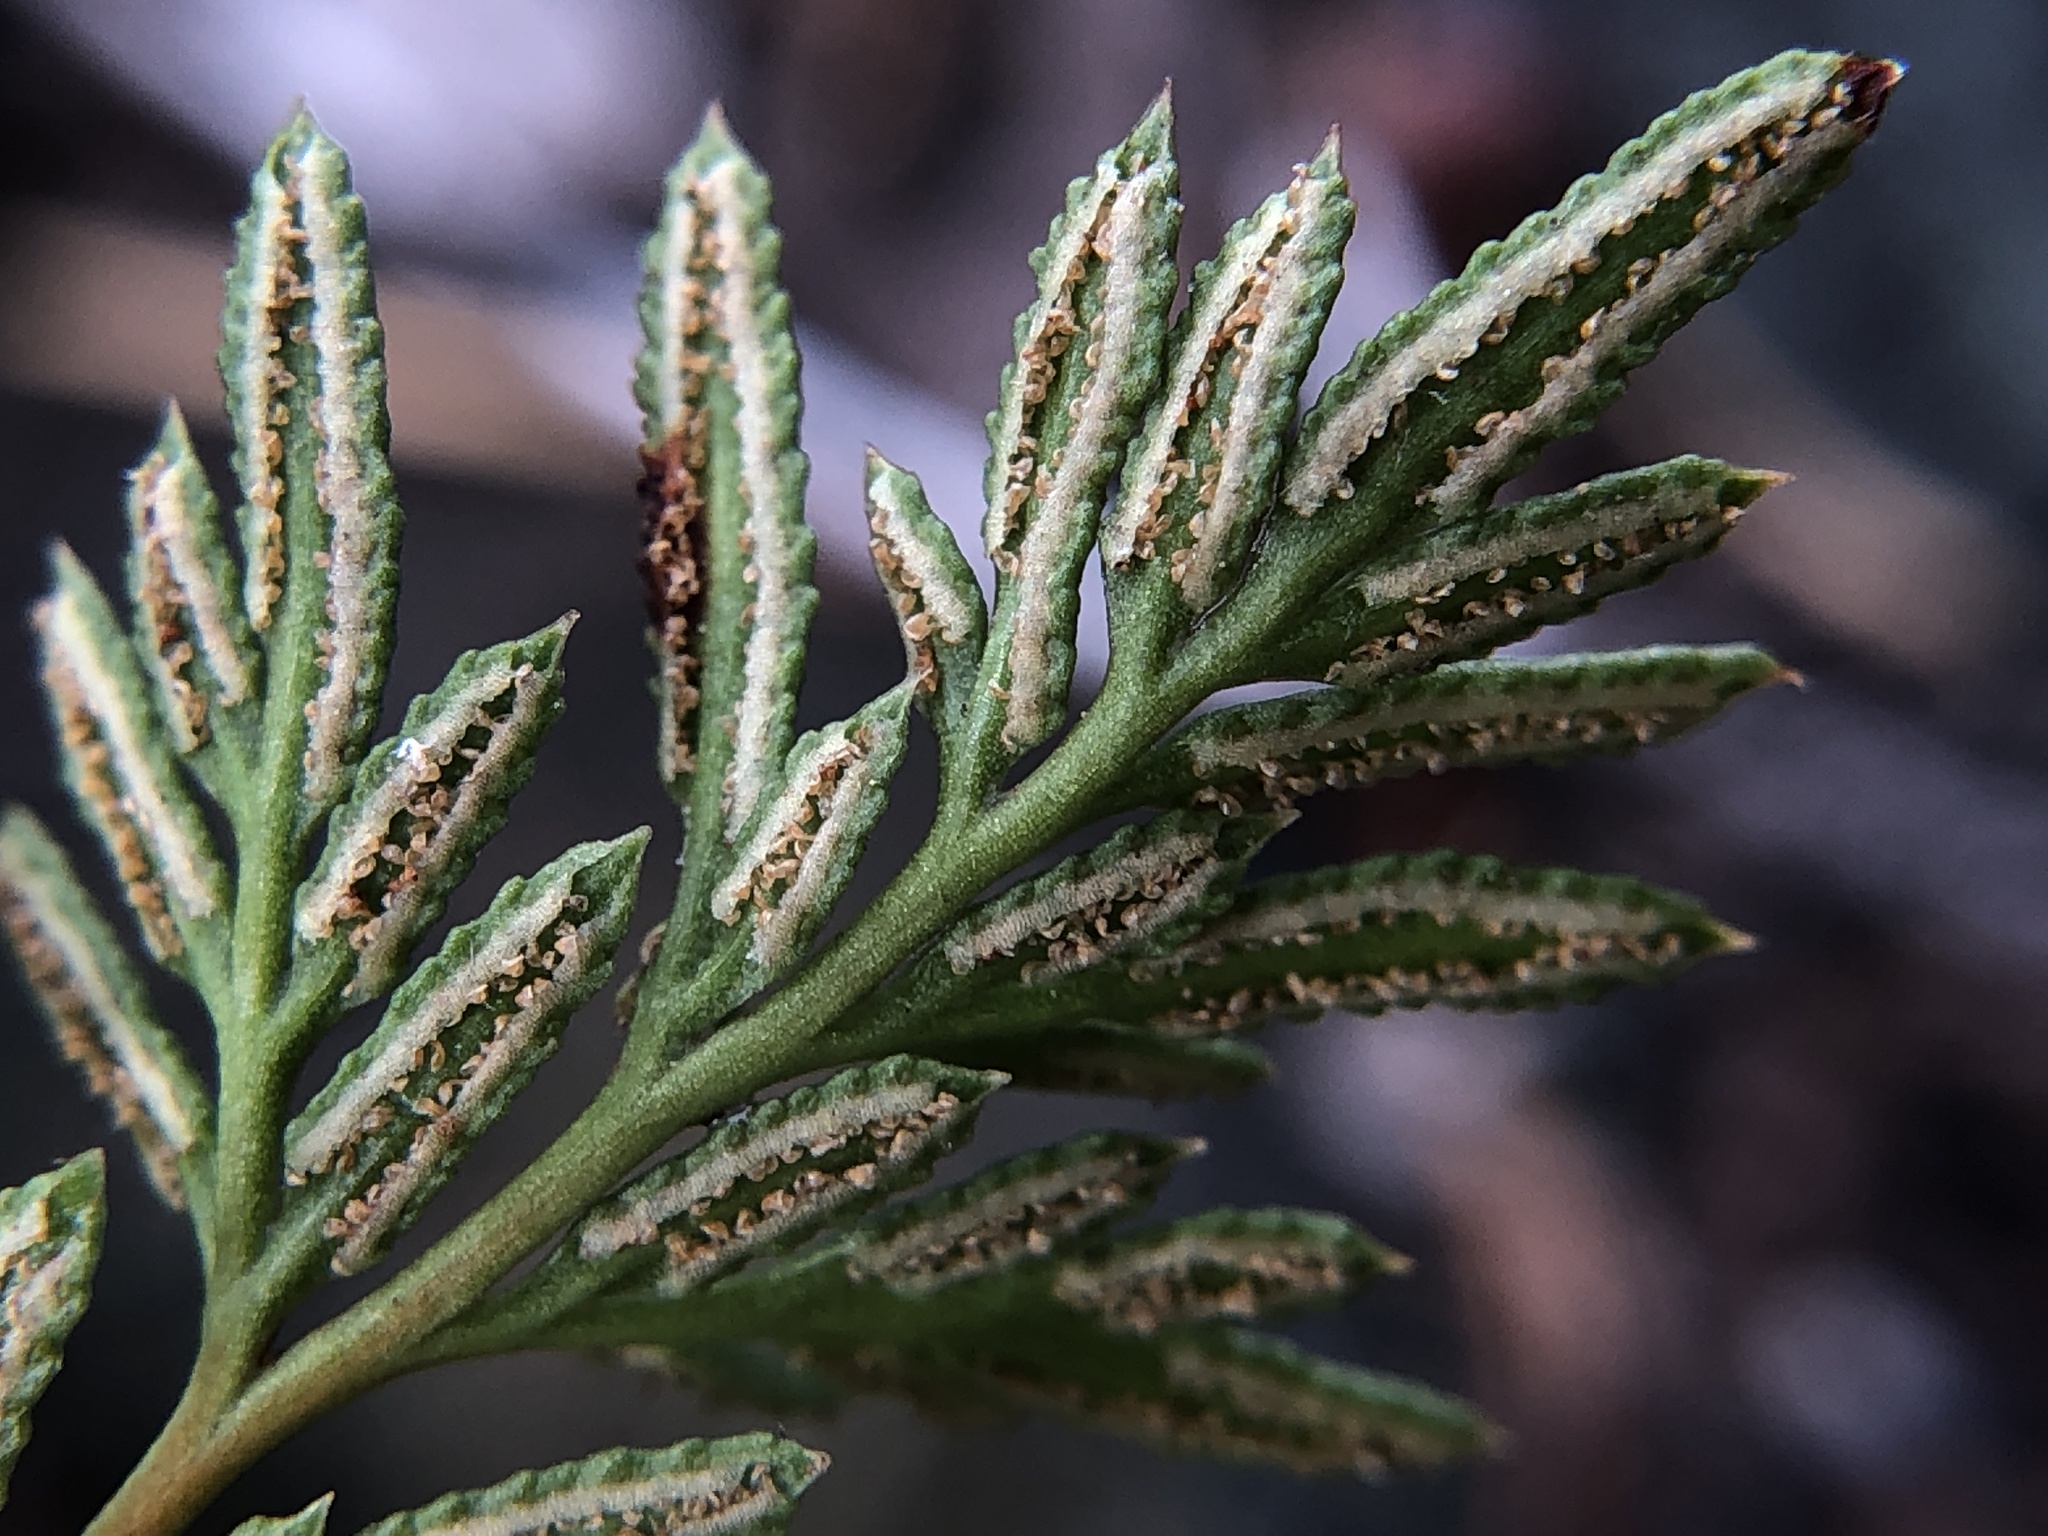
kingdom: Plantae
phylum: Tracheophyta
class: Polypodiopsida
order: Polypodiales
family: Pteridaceae
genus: Aspidotis
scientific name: Aspidotis densa
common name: Indian's dream
